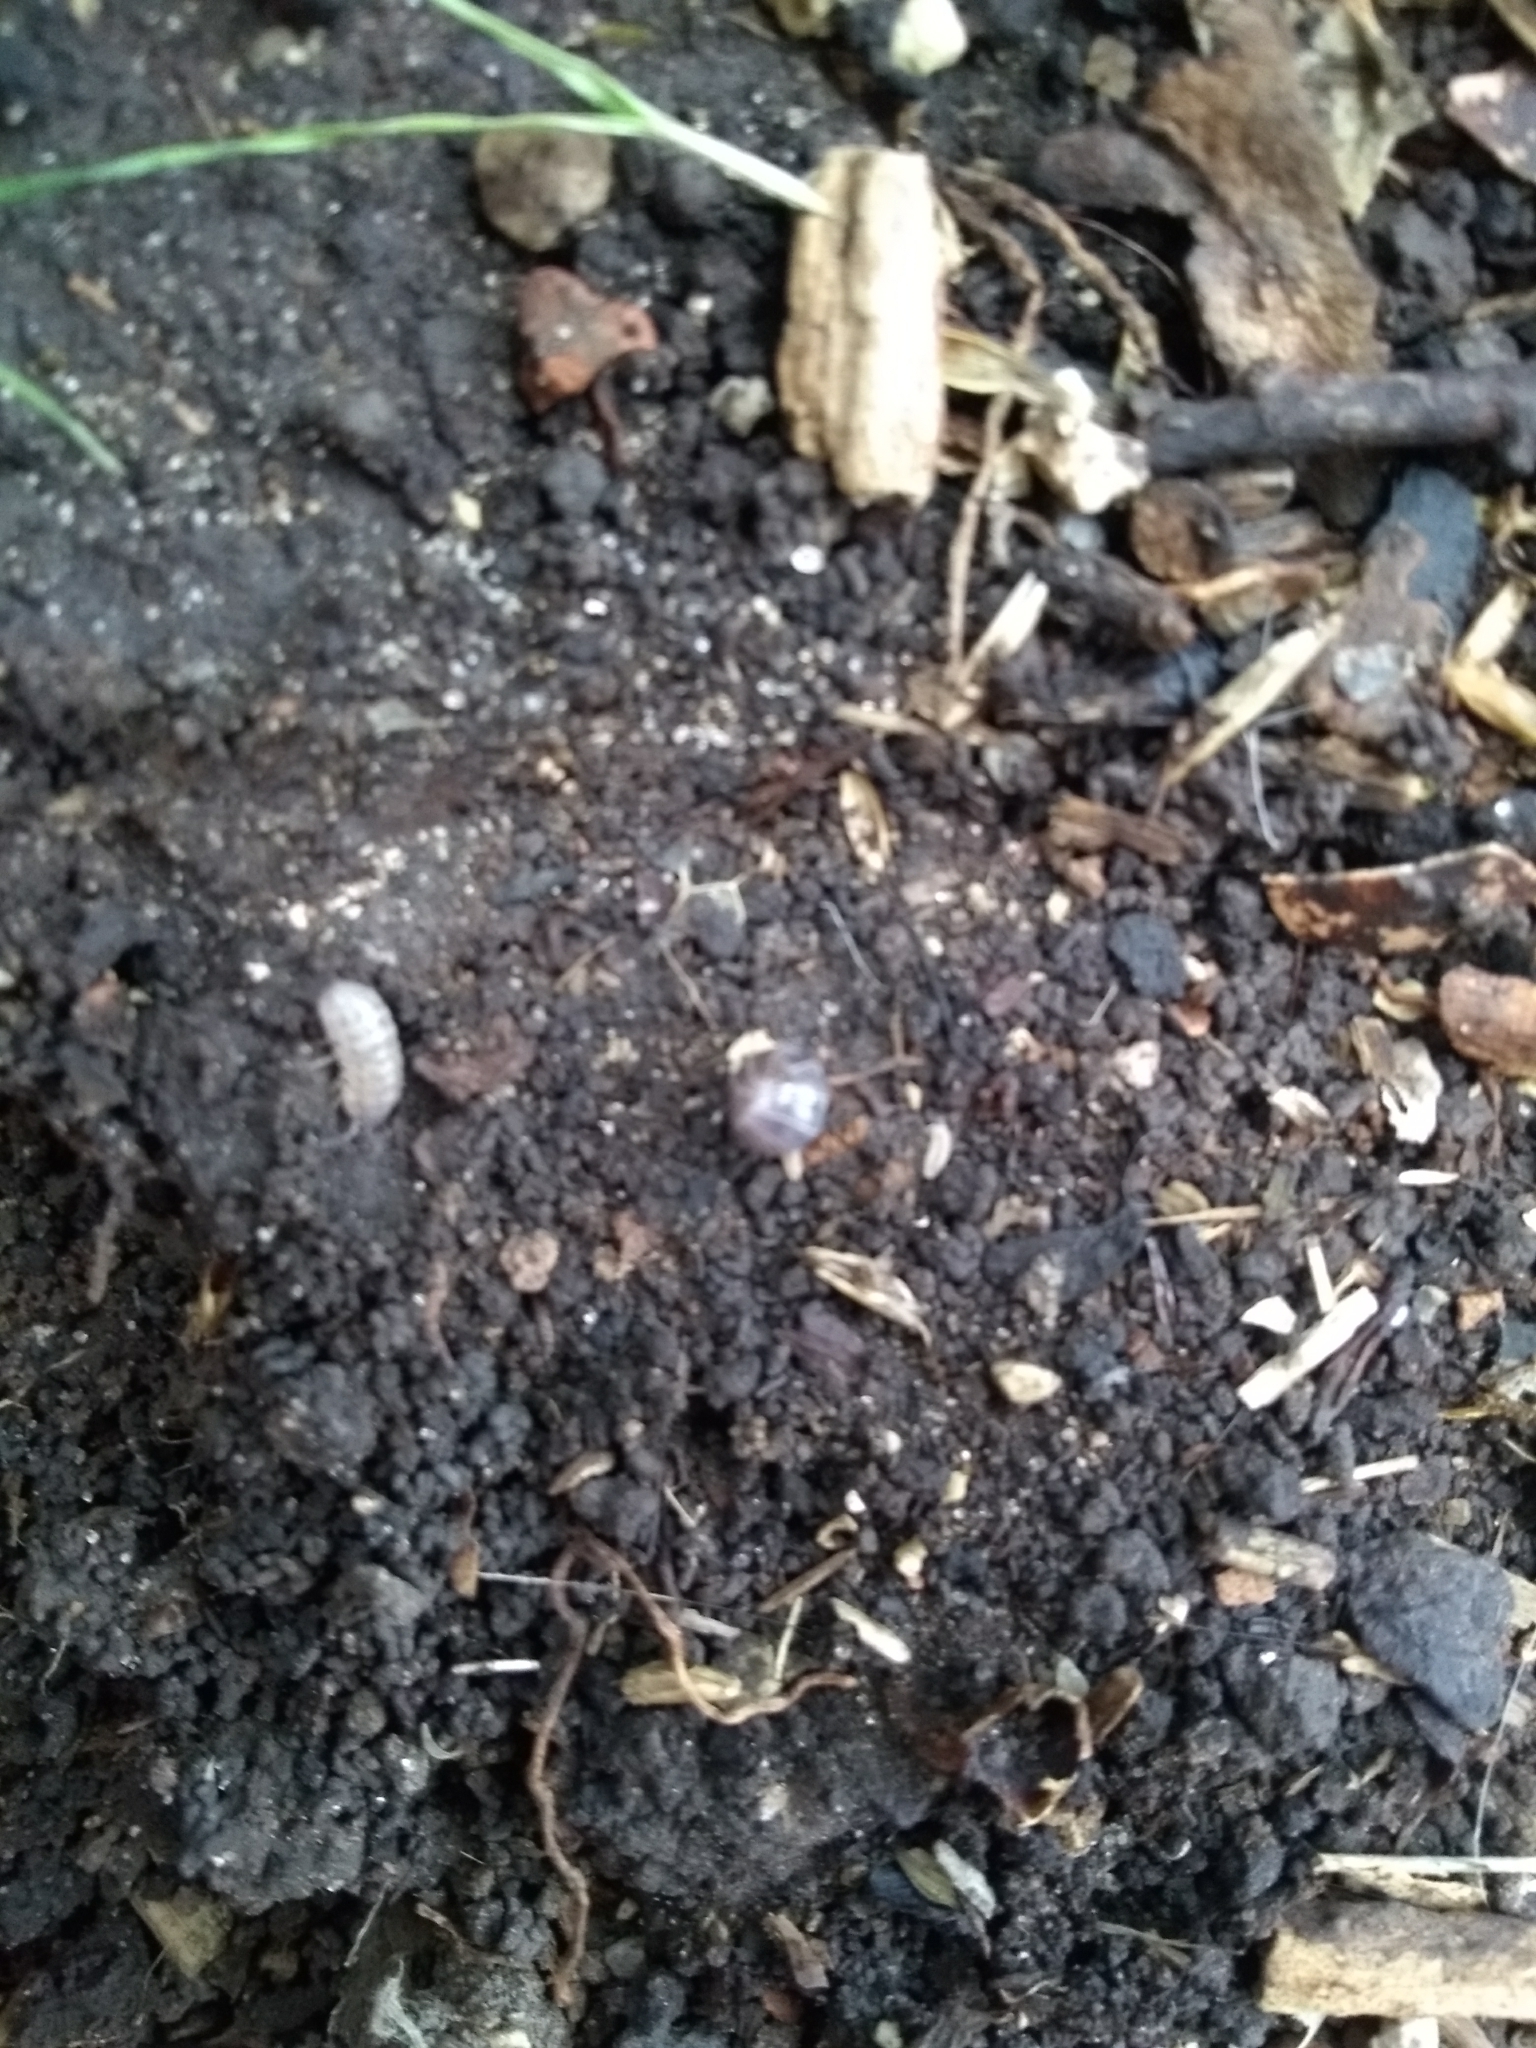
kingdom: Animalia
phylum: Arthropoda
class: Malacostraca
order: Isopoda
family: Armadillidiidae
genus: Armadillidium
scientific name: Armadillidium vulgare
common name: Common pill woodlouse
